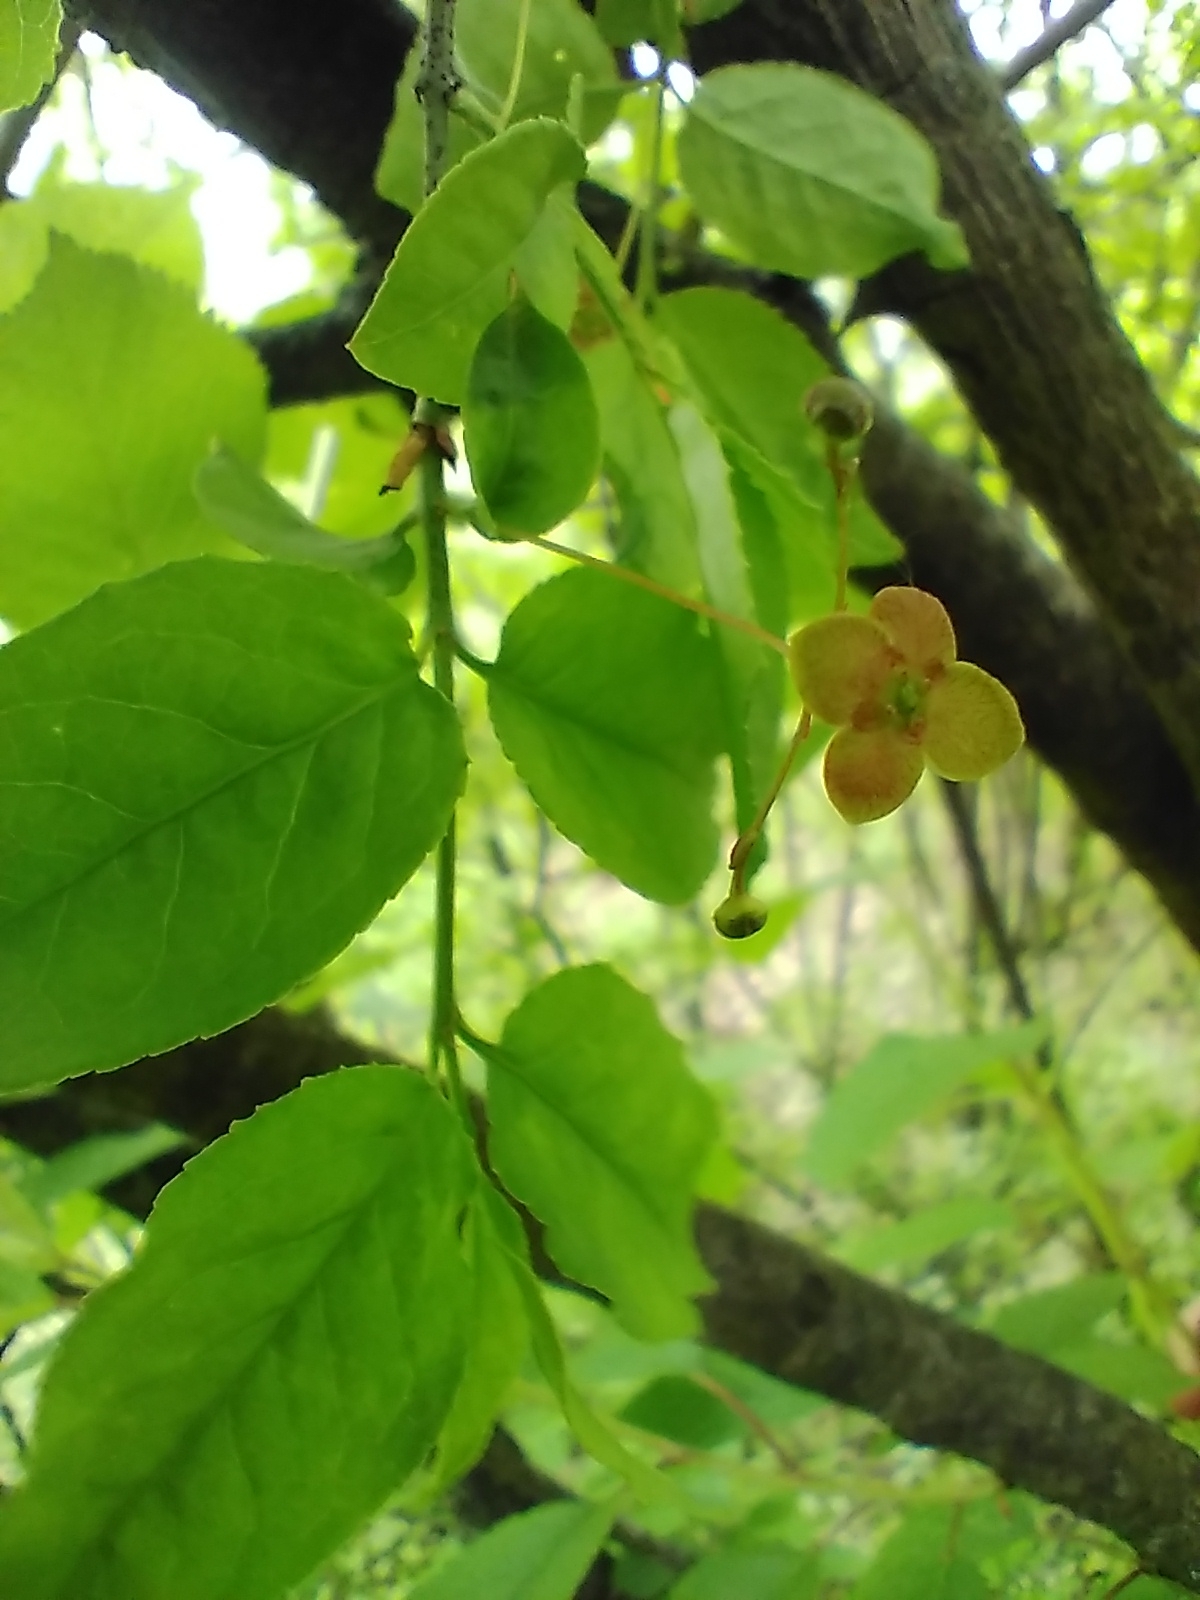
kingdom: Plantae
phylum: Tracheophyta
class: Magnoliopsida
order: Celastrales
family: Celastraceae
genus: Euonymus
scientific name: Euonymus verrucosus
